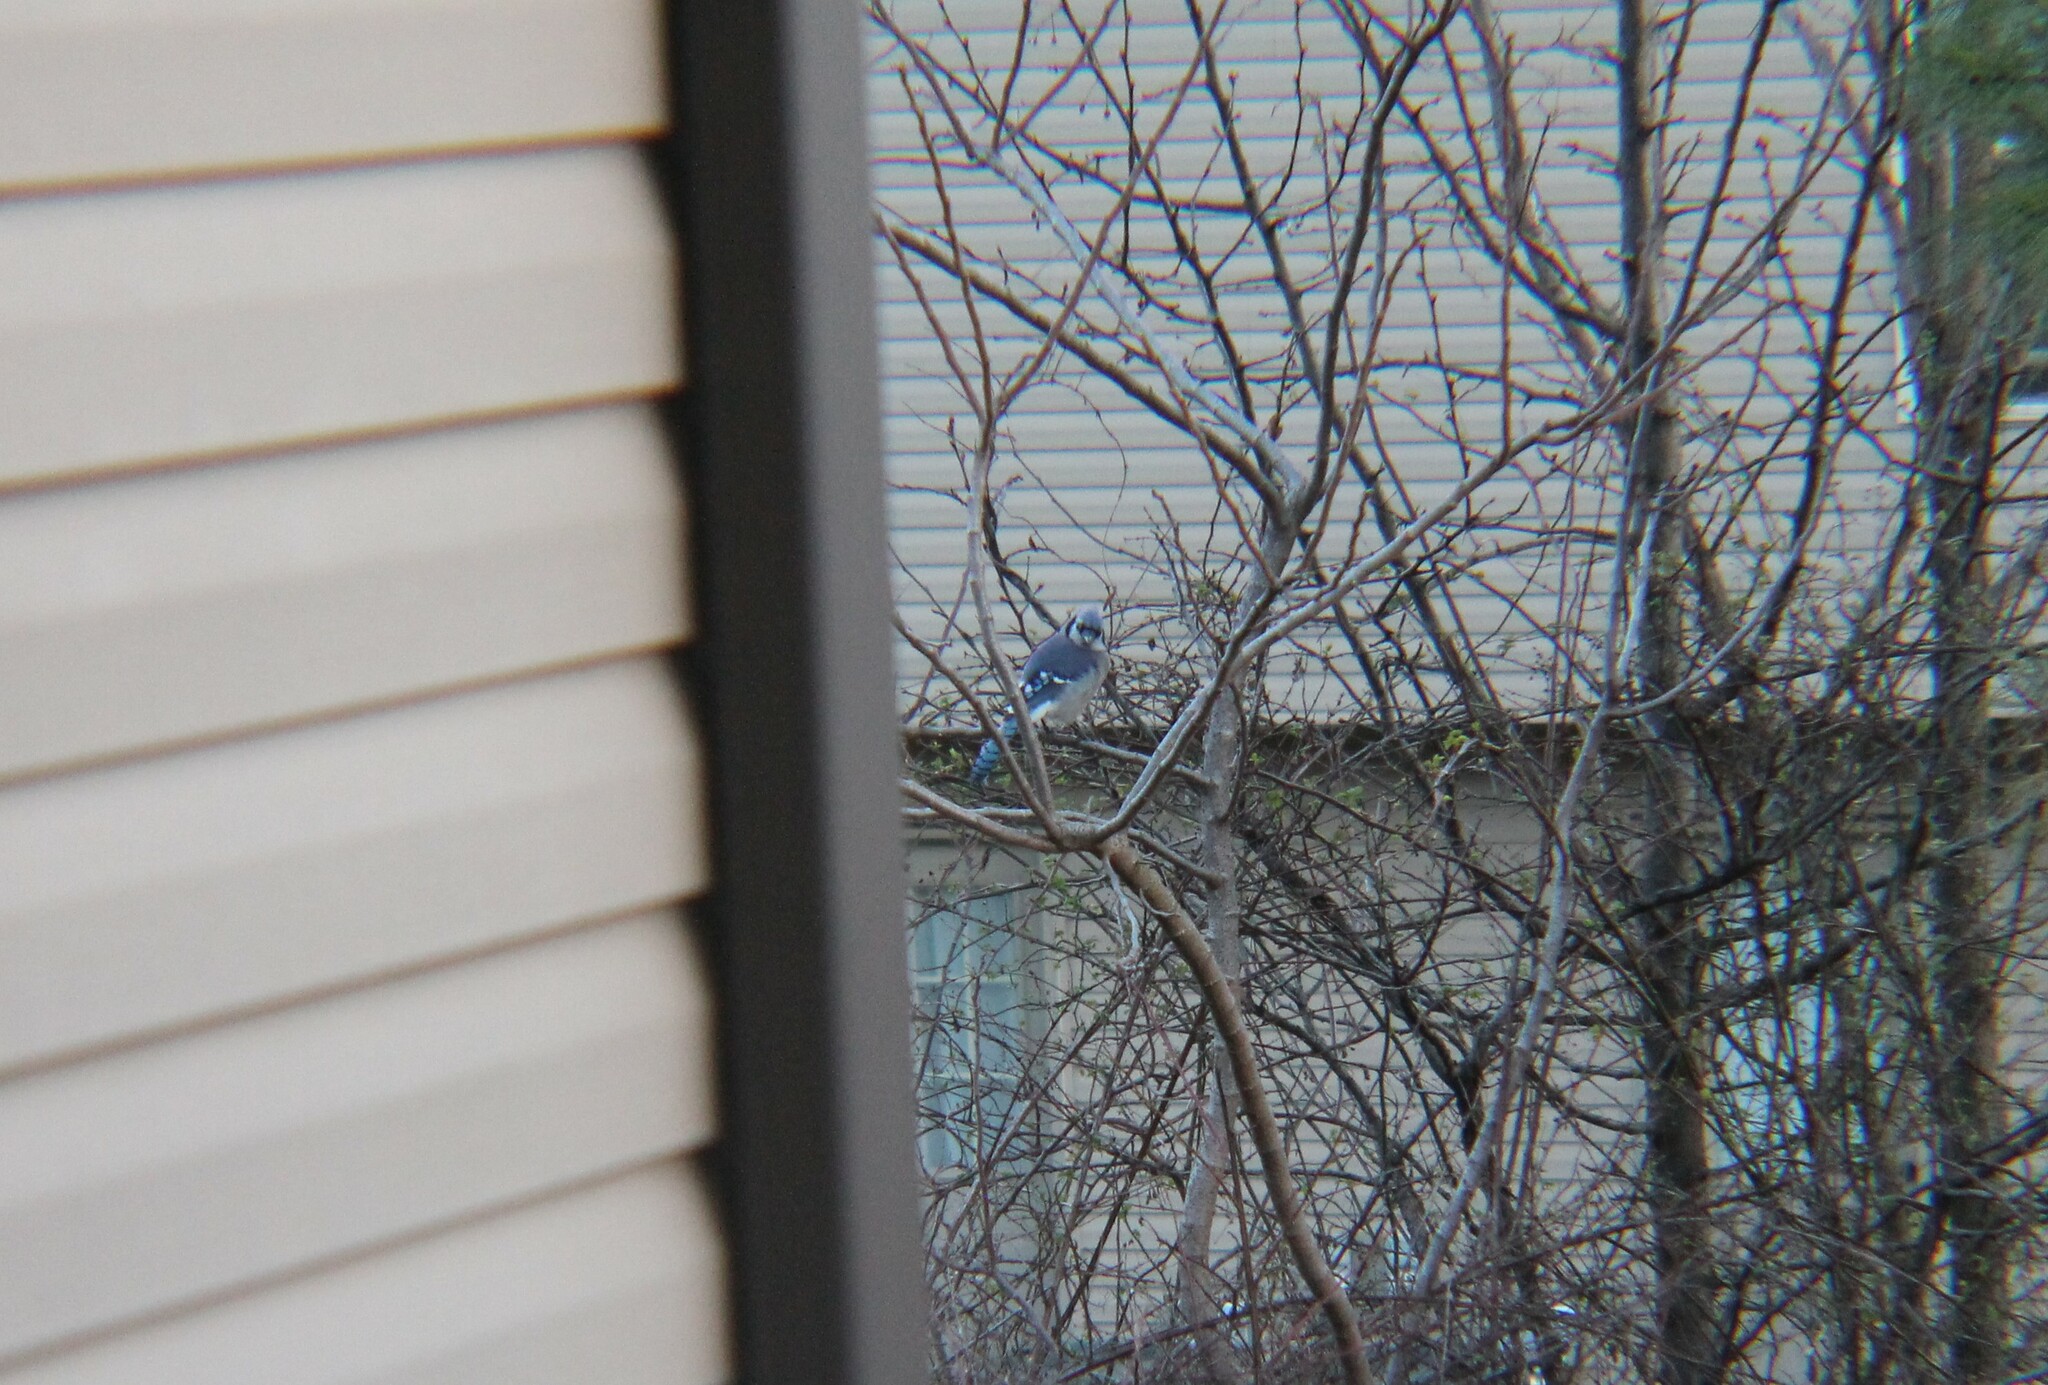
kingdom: Animalia
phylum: Chordata
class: Aves
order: Passeriformes
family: Corvidae
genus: Cyanocitta
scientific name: Cyanocitta cristata
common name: Blue jay
